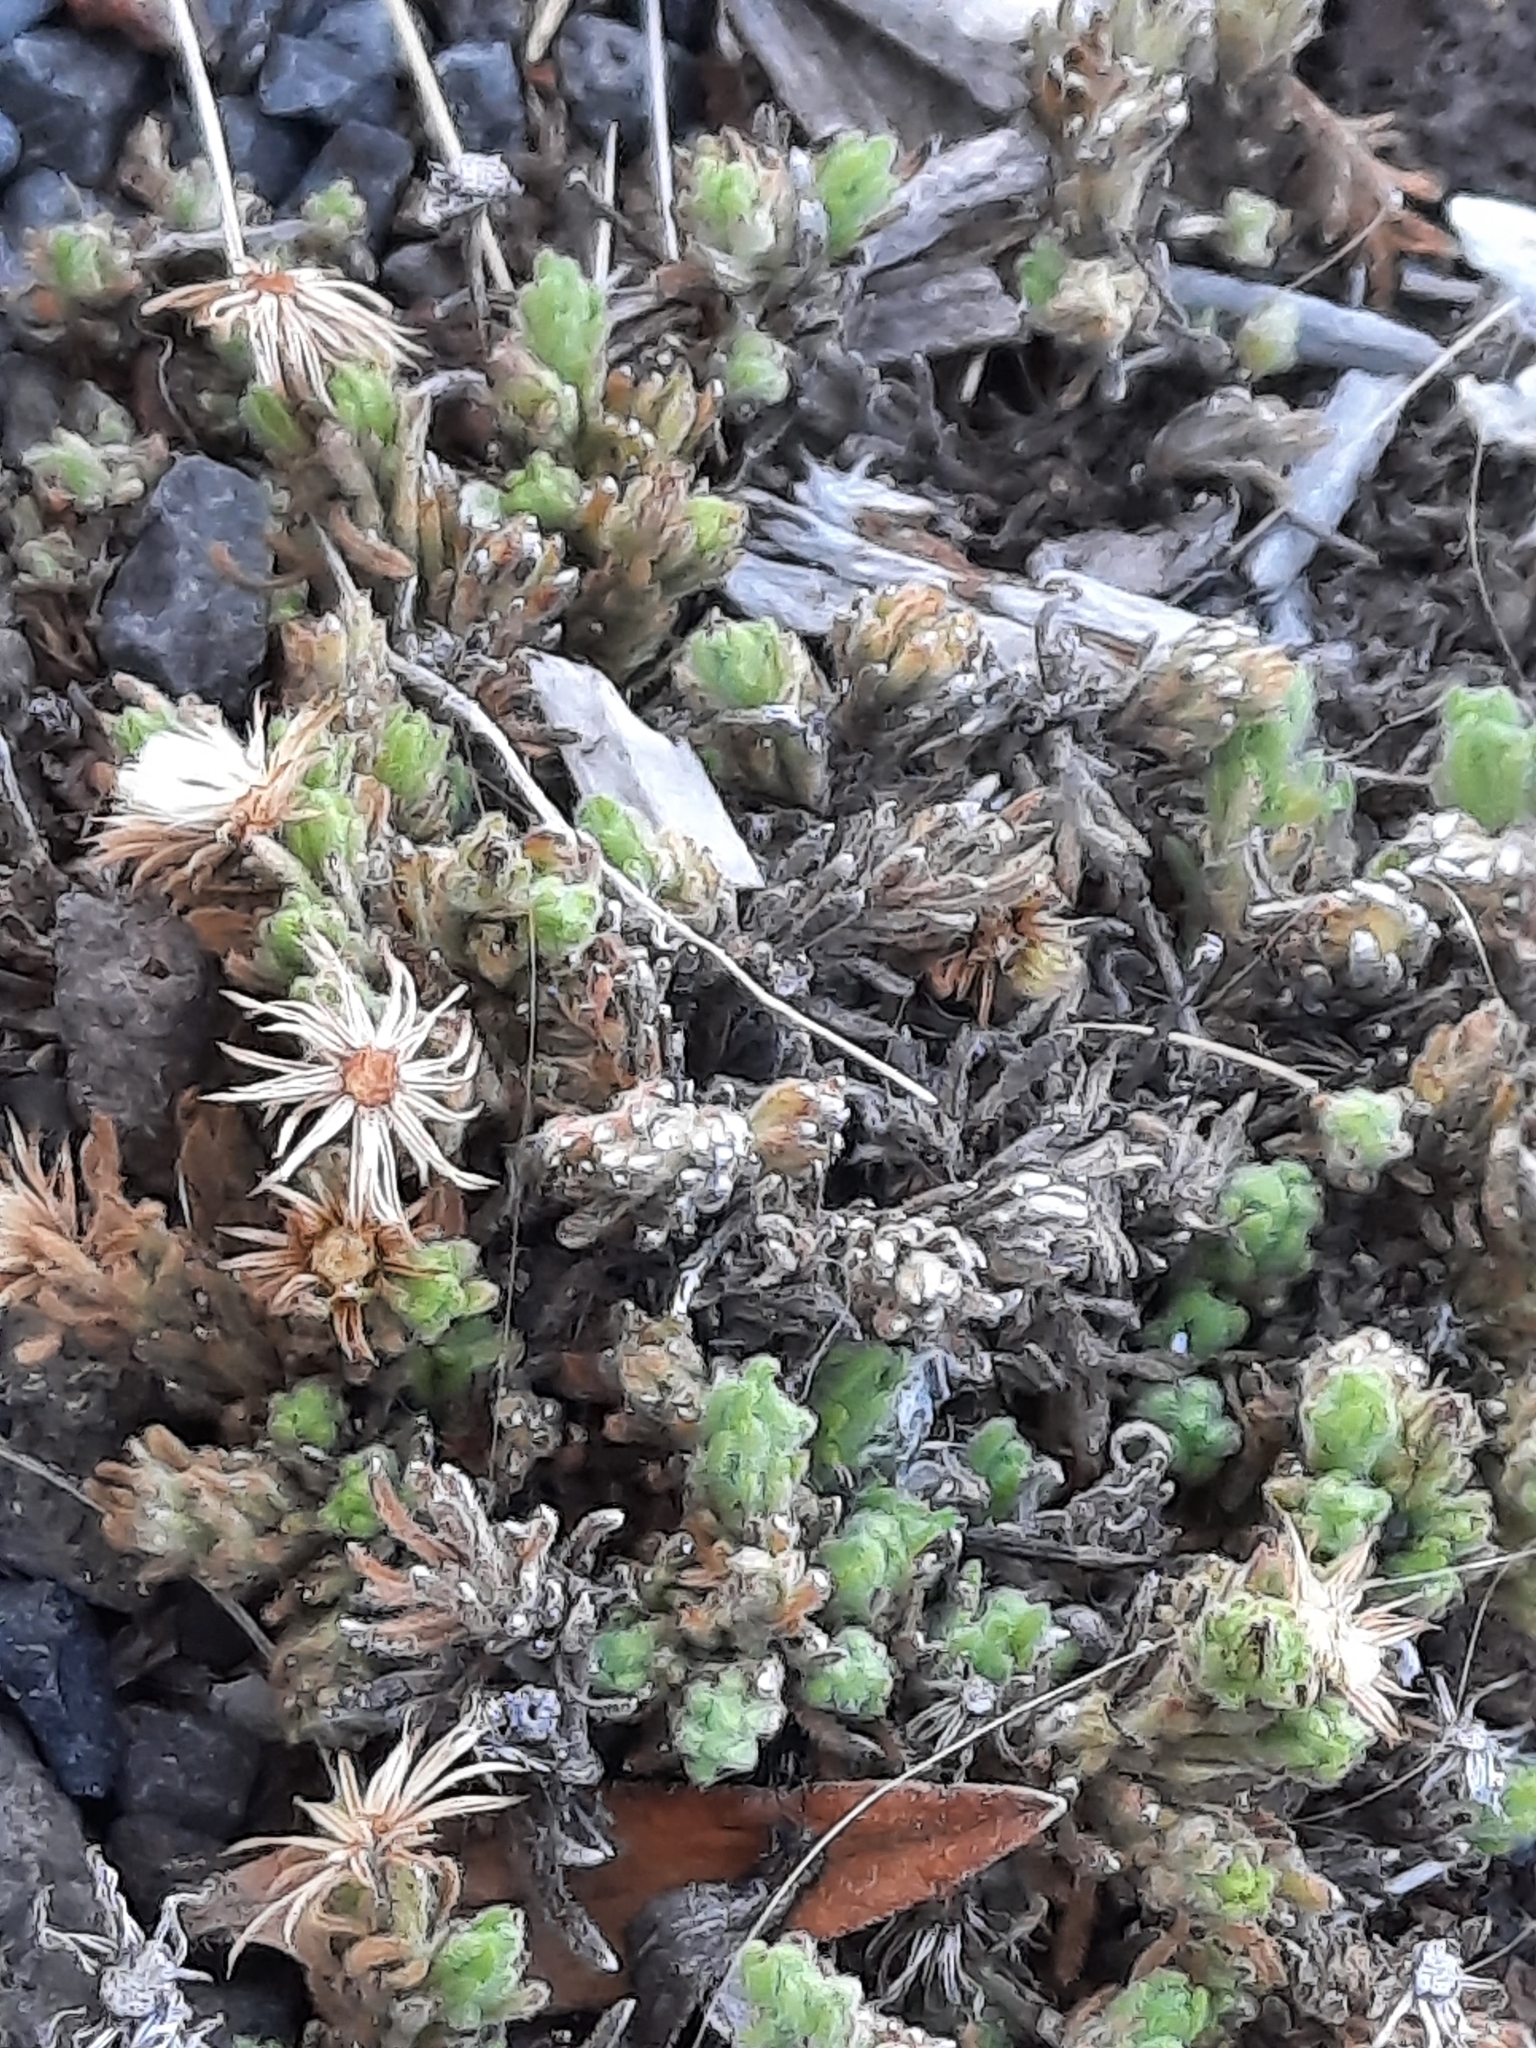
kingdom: Plantae
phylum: Tracheophyta
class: Magnoliopsida
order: Asterales
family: Asteraceae
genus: Tetramolopium
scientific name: Tetramolopium humile
